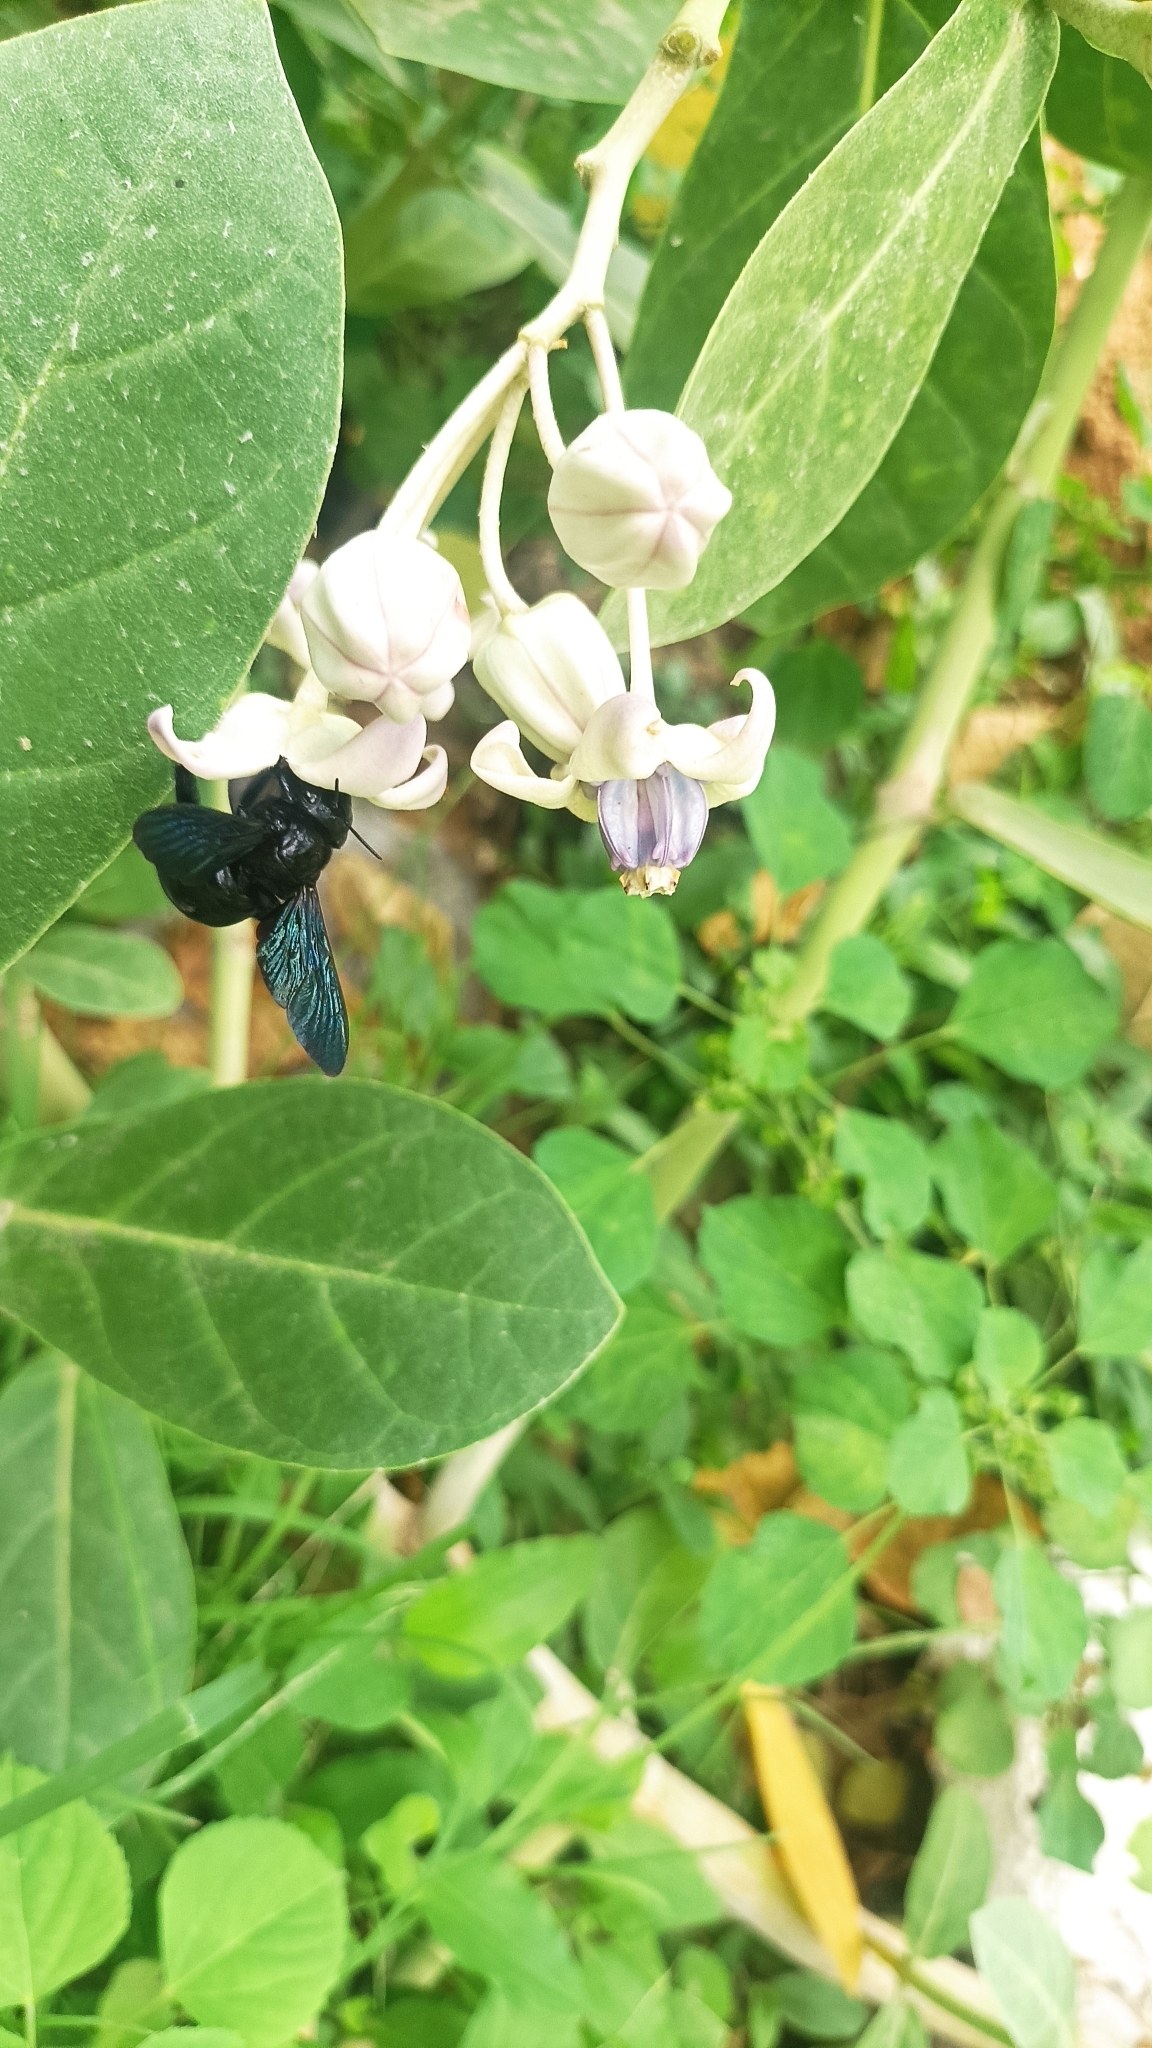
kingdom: Plantae
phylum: Tracheophyta
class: Magnoliopsida
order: Gentianales
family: Apocynaceae
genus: Calotropis
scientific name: Calotropis gigantea
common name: Crown flower
